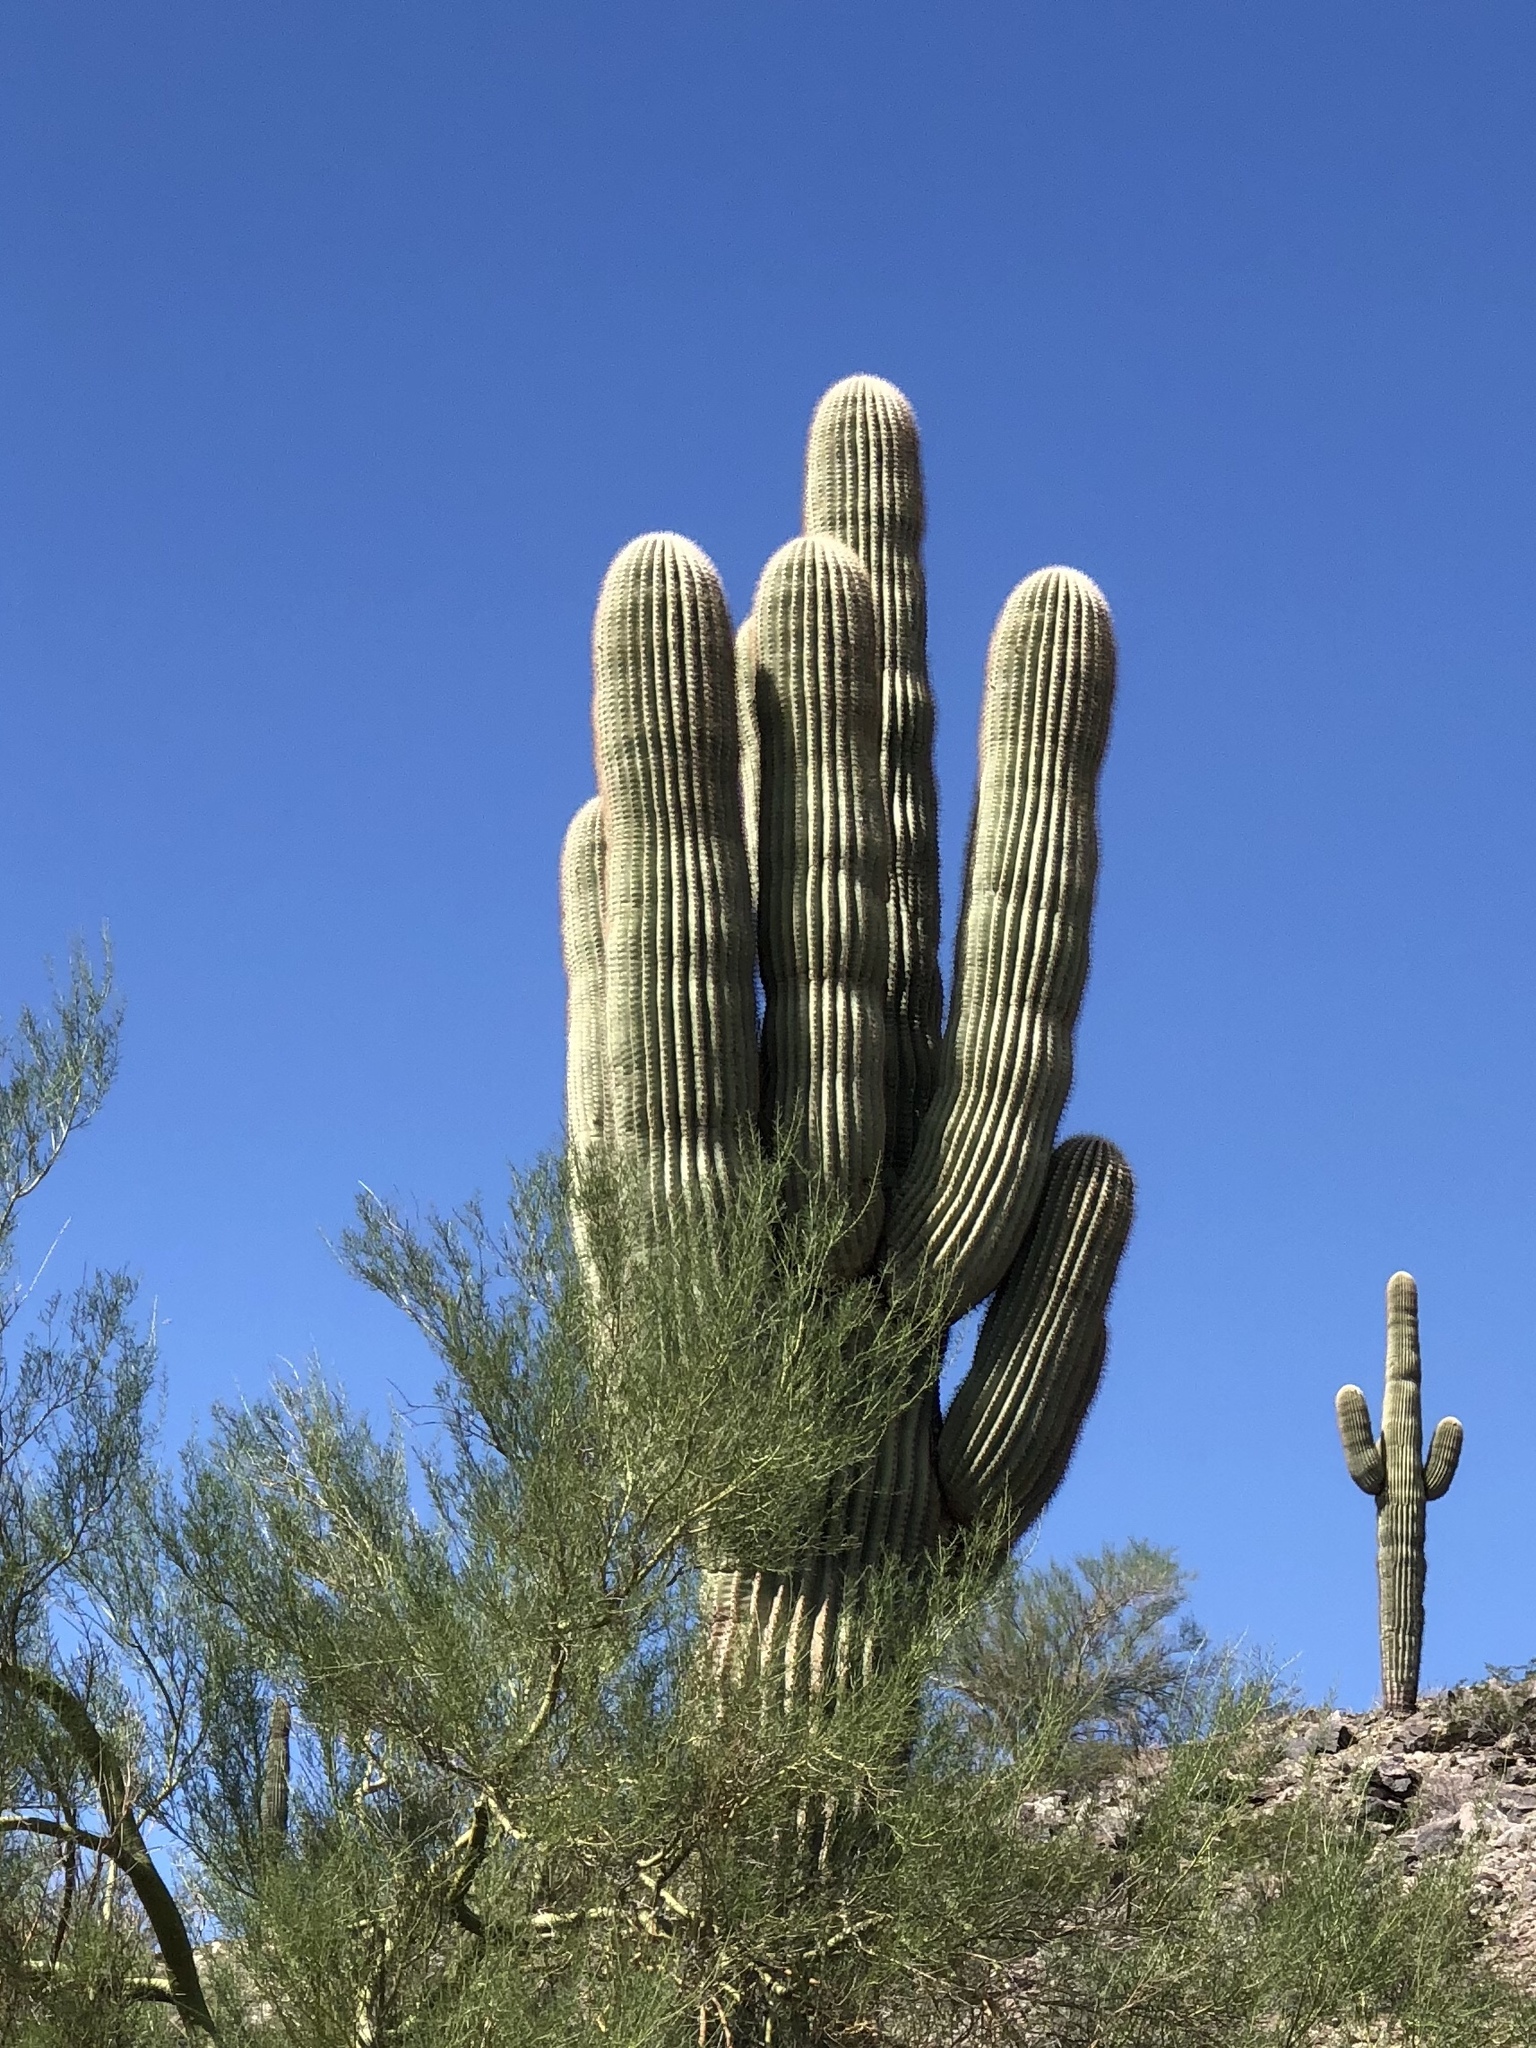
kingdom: Plantae
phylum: Tracheophyta
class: Magnoliopsida
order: Caryophyllales
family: Cactaceae
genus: Carnegiea
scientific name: Carnegiea gigantea
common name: Saguaro
